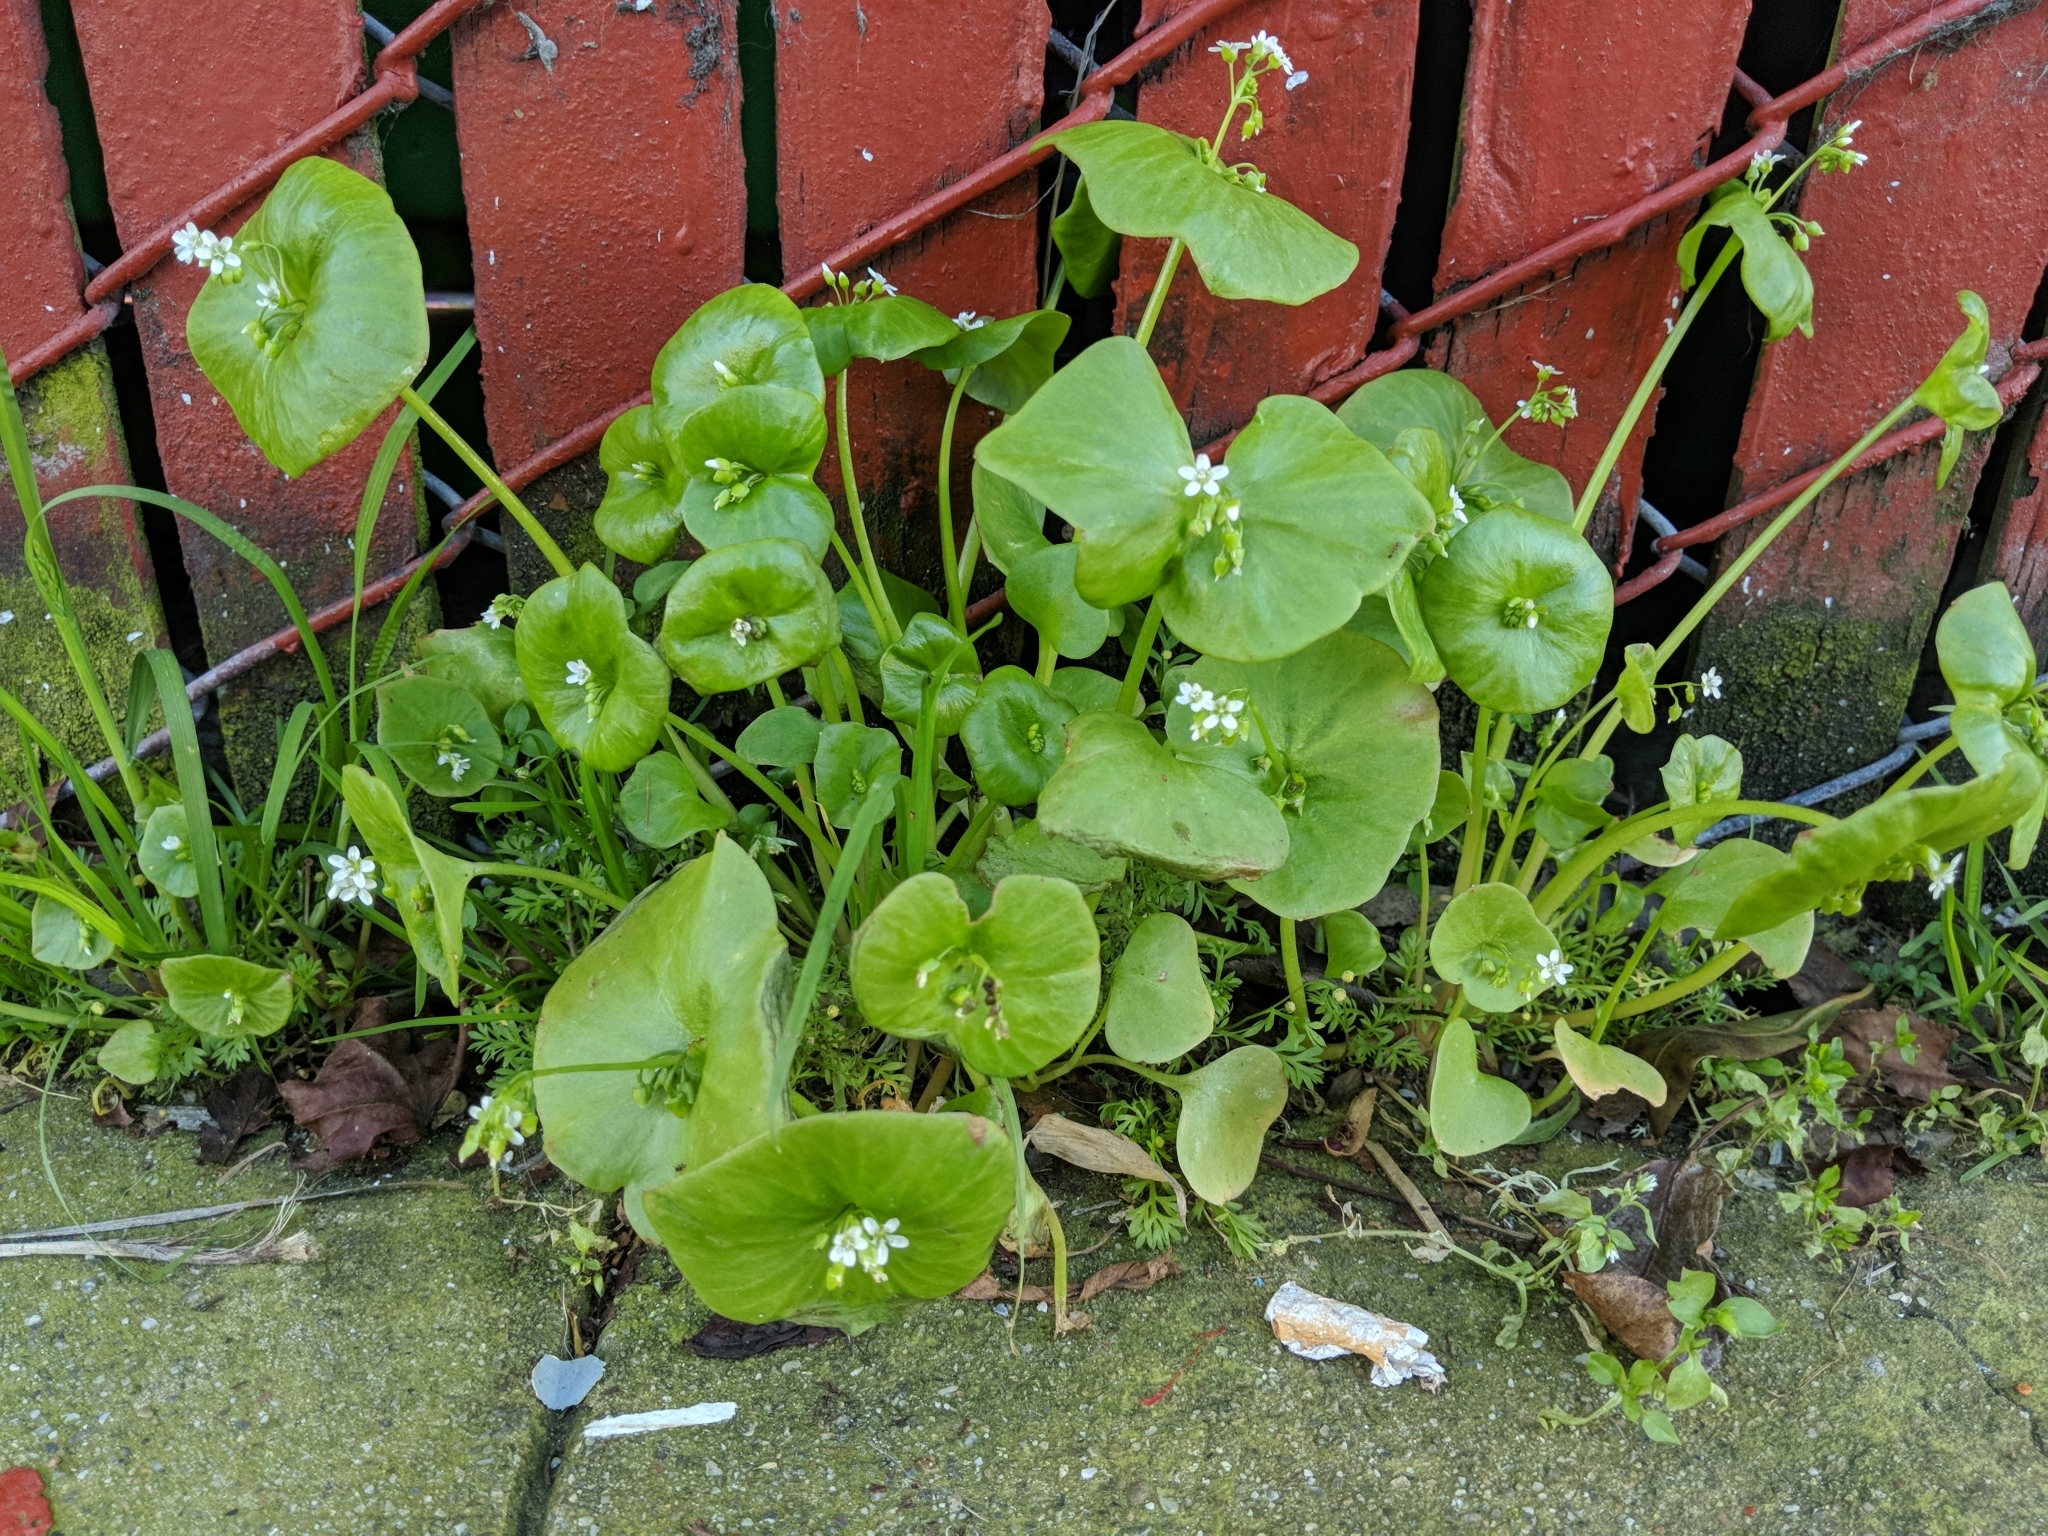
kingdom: Plantae
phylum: Tracheophyta
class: Magnoliopsida
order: Caryophyllales
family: Montiaceae
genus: Claytonia
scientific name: Claytonia perfoliata
